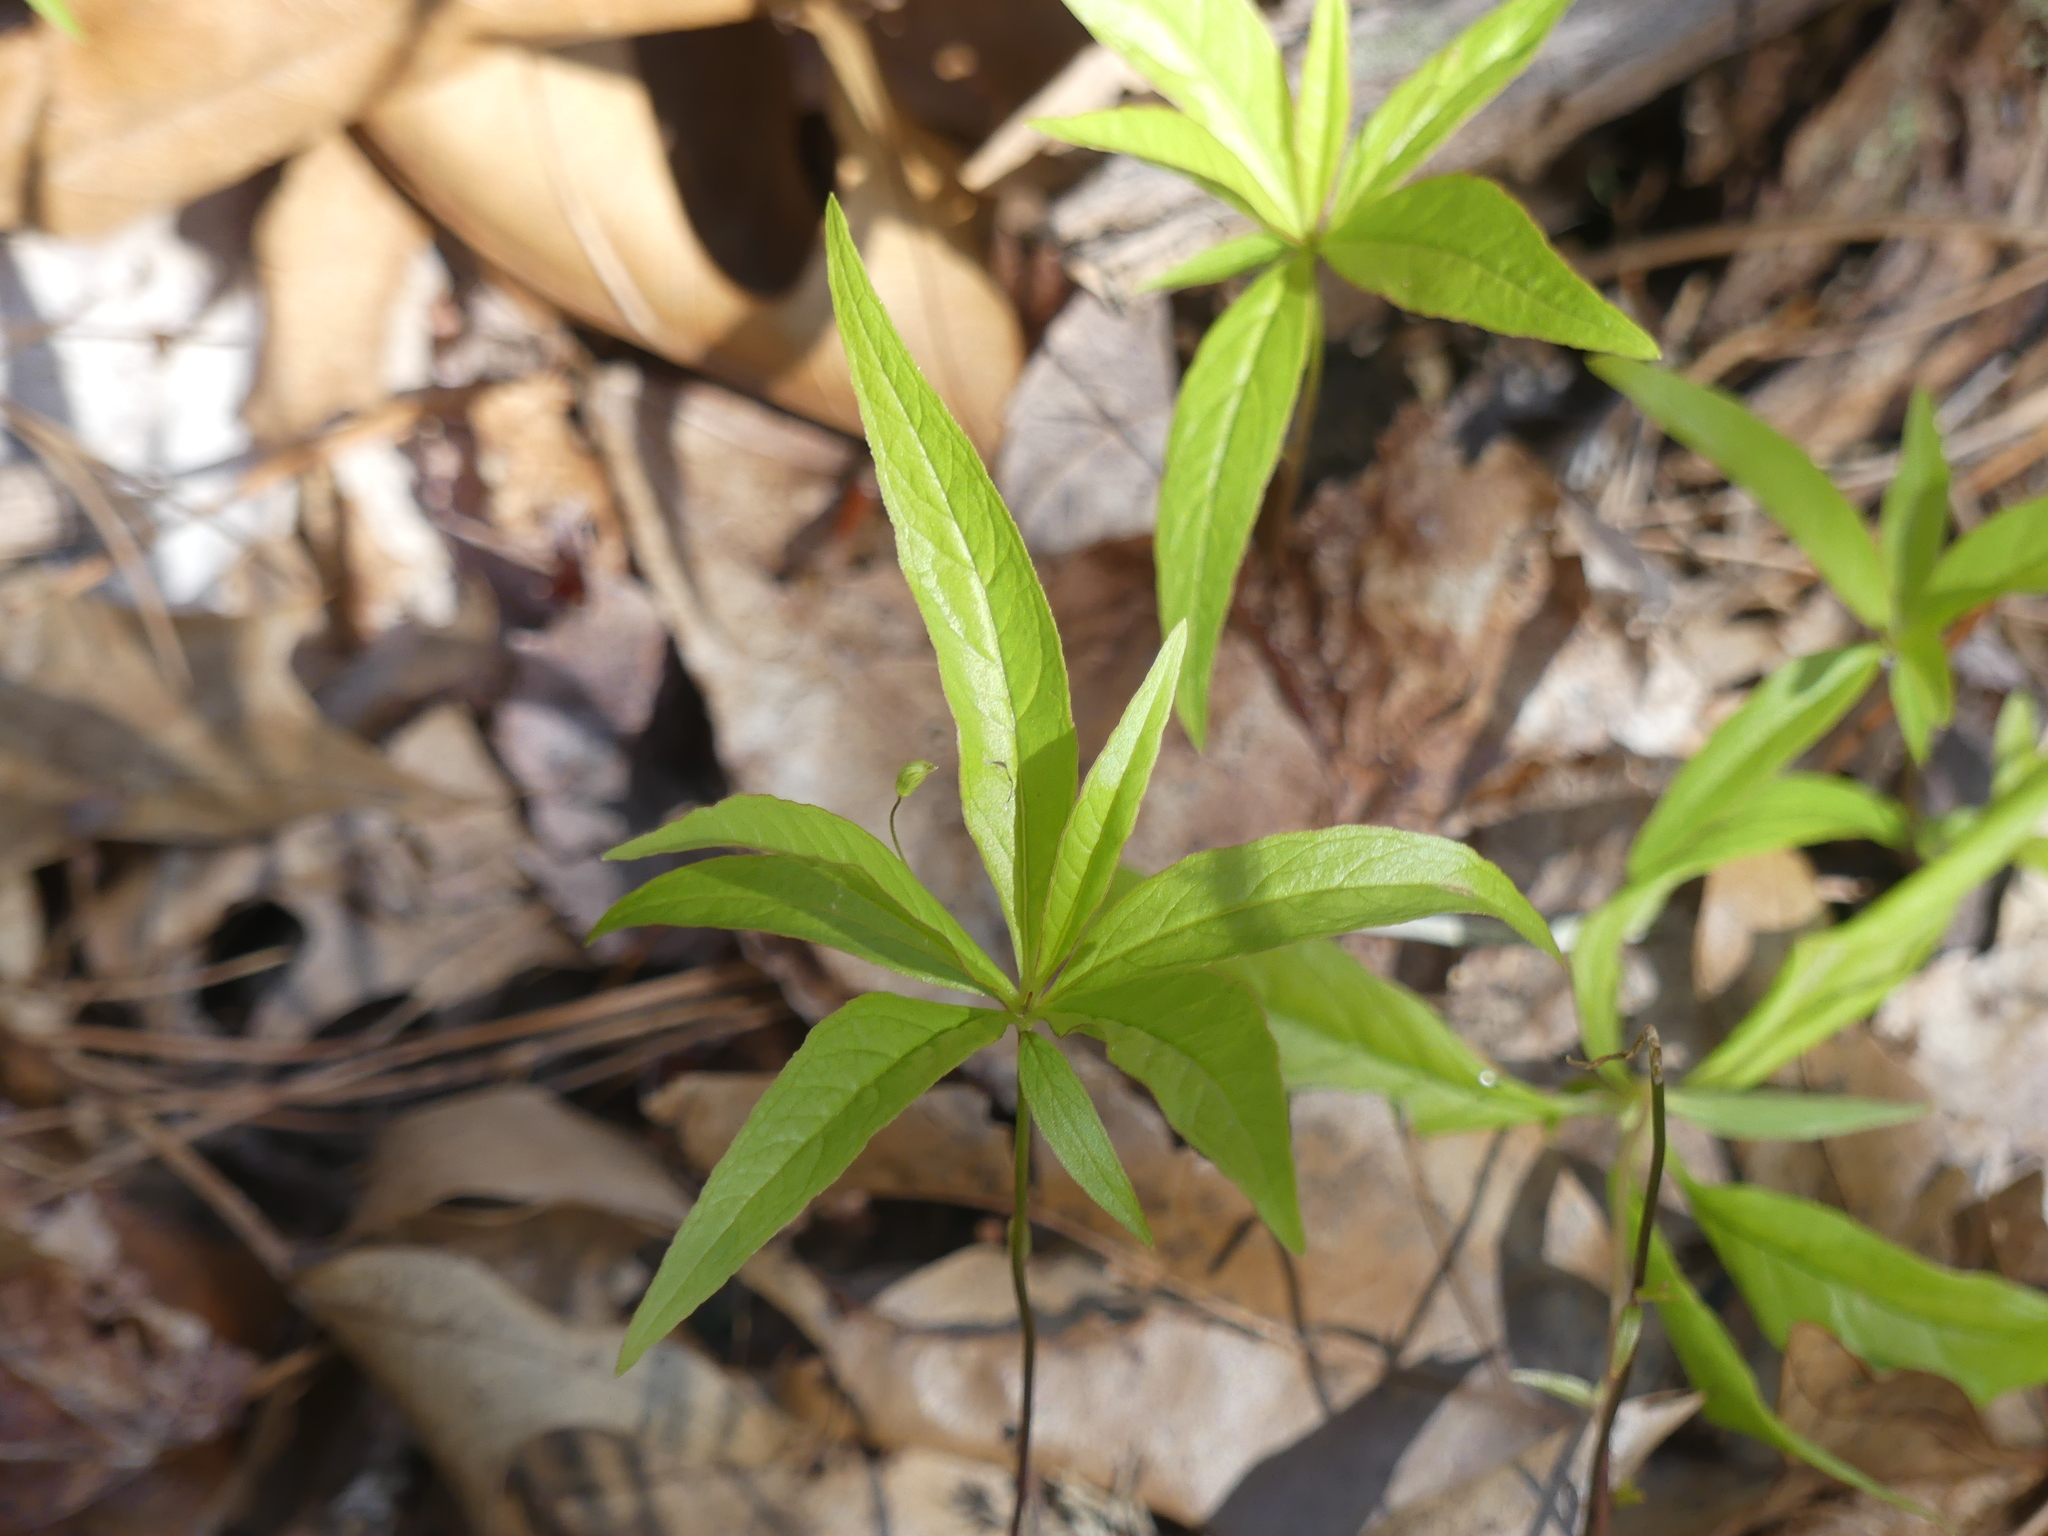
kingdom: Plantae
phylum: Tracheophyta
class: Magnoliopsida
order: Ericales
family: Primulaceae
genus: Lysimachia
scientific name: Lysimachia borealis
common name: American starflower
